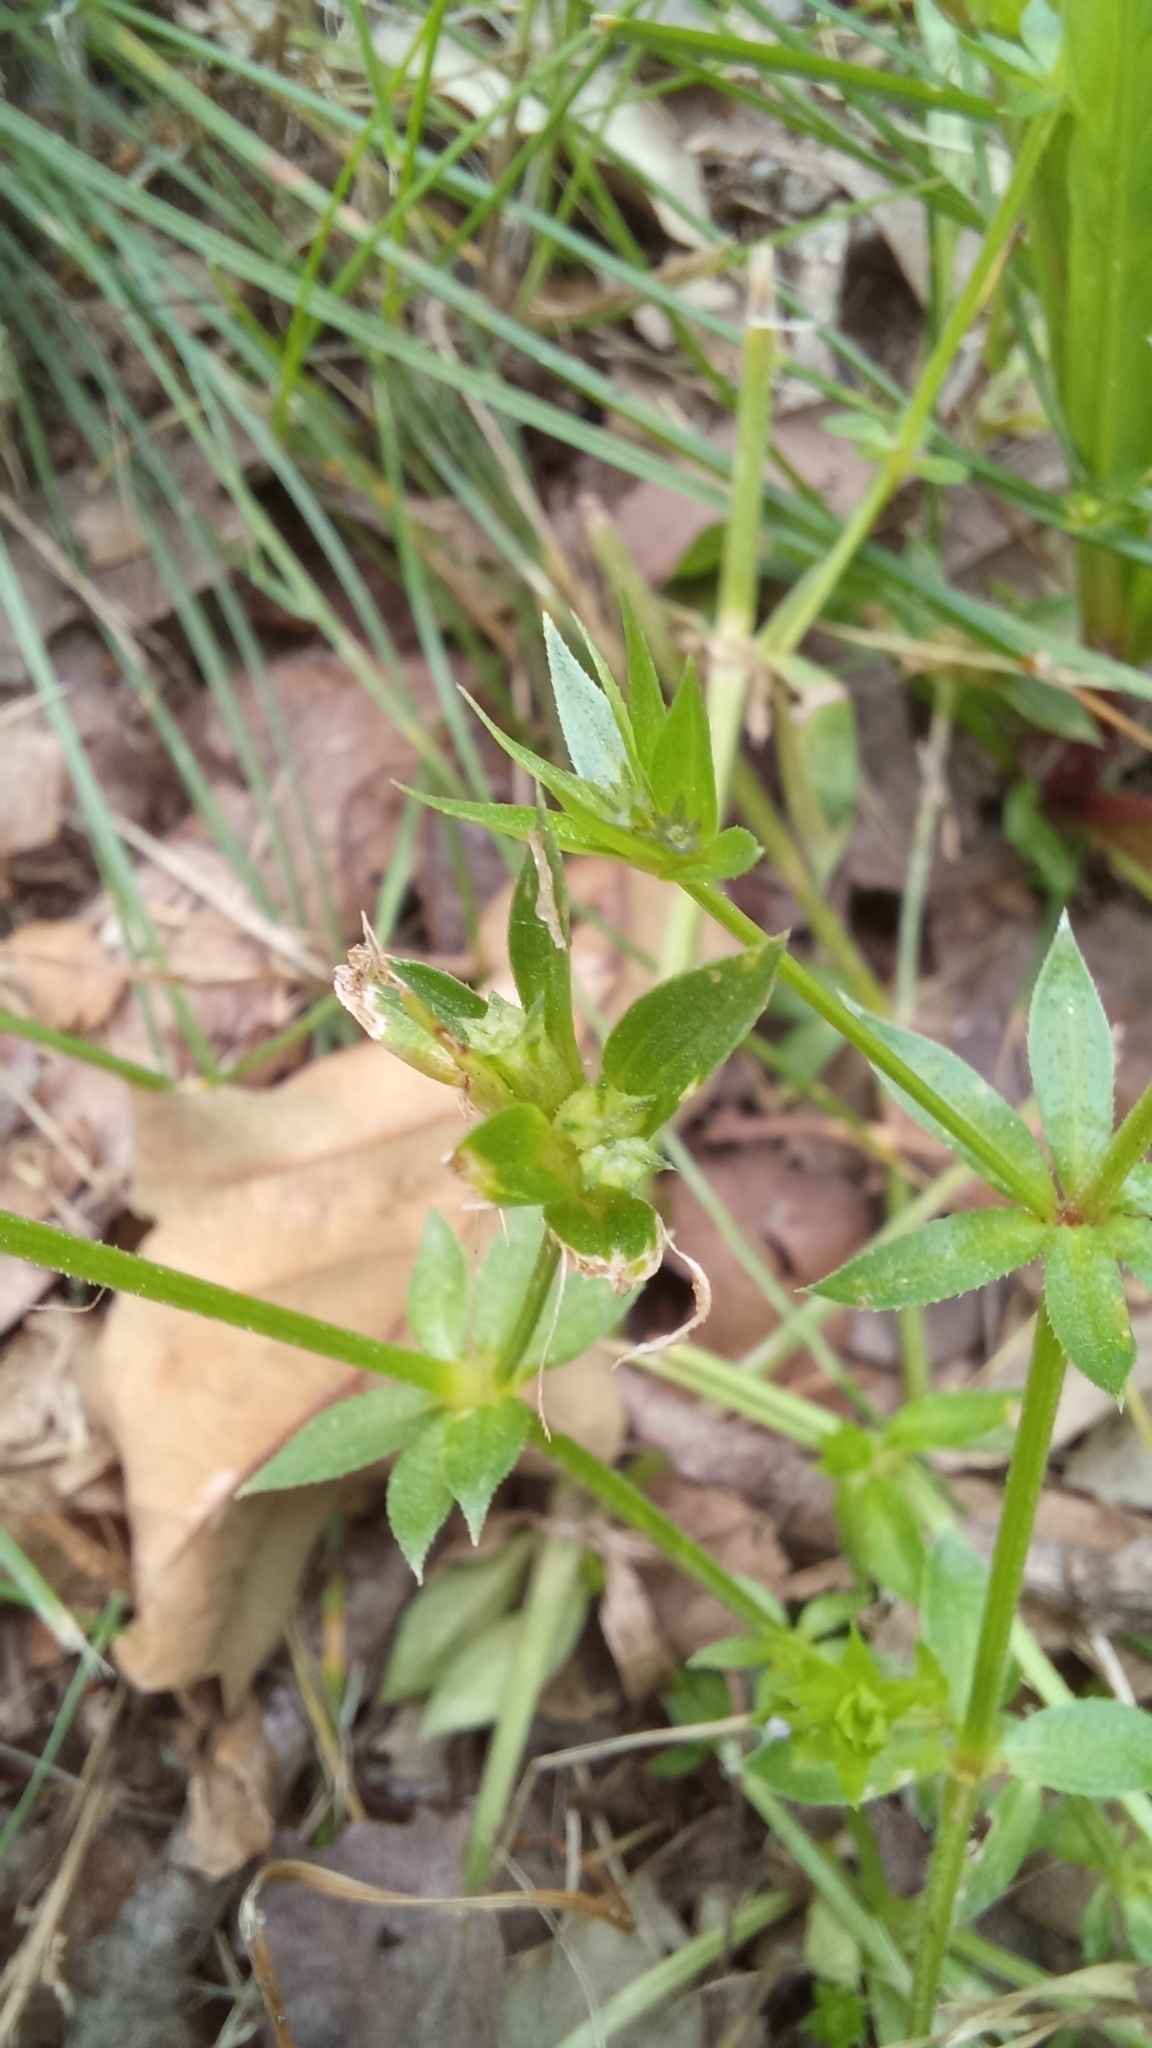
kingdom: Plantae
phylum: Tracheophyta
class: Magnoliopsida
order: Gentianales
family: Rubiaceae
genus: Sherardia
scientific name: Sherardia arvensis
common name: Field madder
